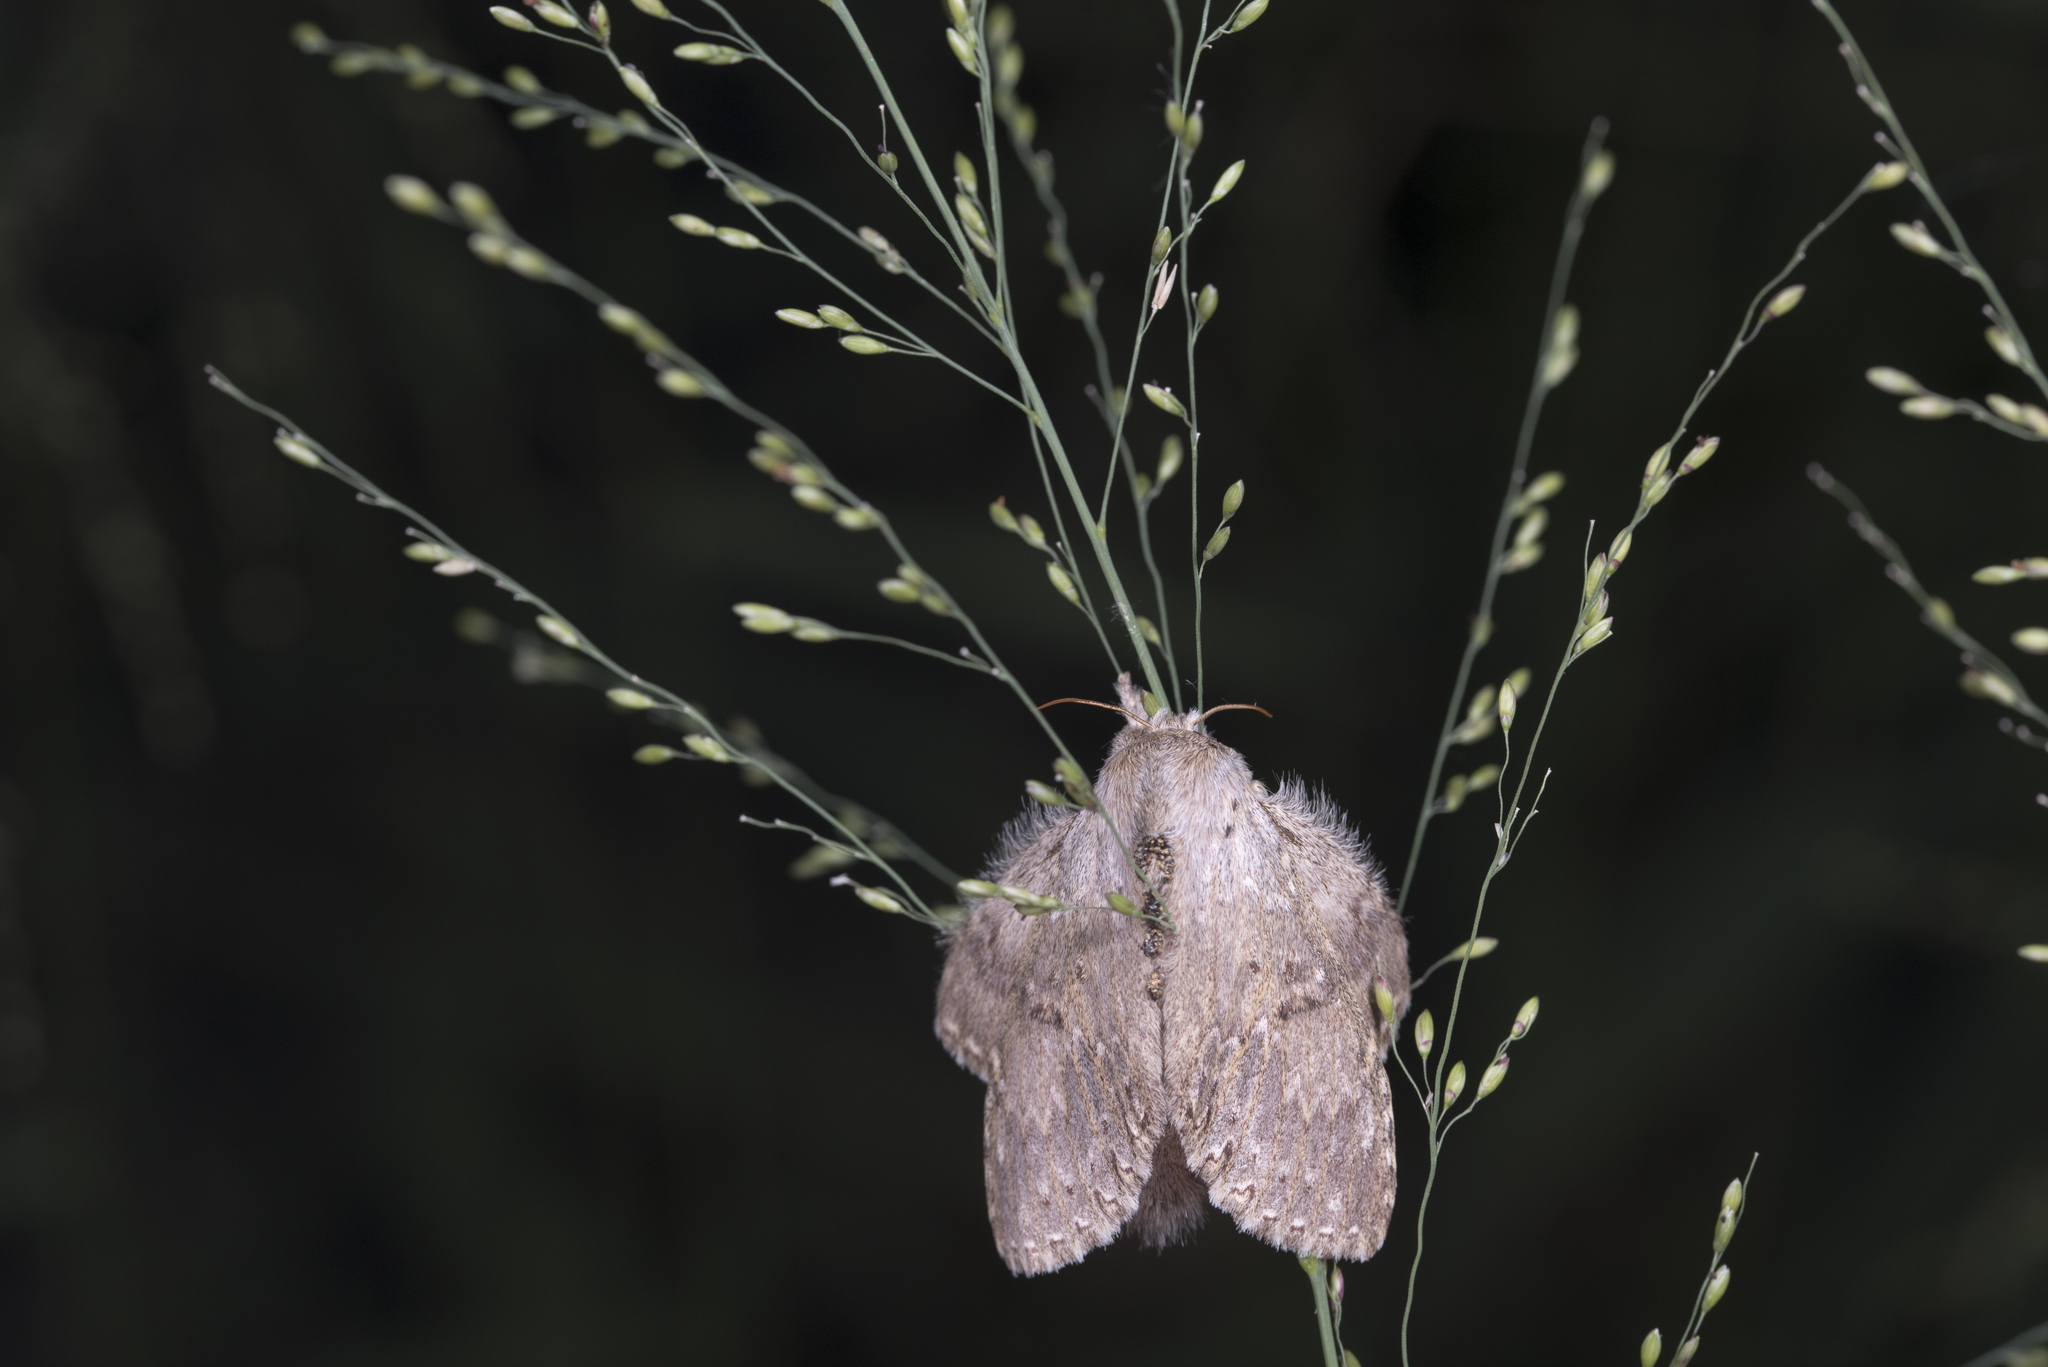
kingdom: Animalia
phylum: Arthropoda
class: Insecta
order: Lepidoptera
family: Notodontidae
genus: Stauropus
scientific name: Stauropus alternus
